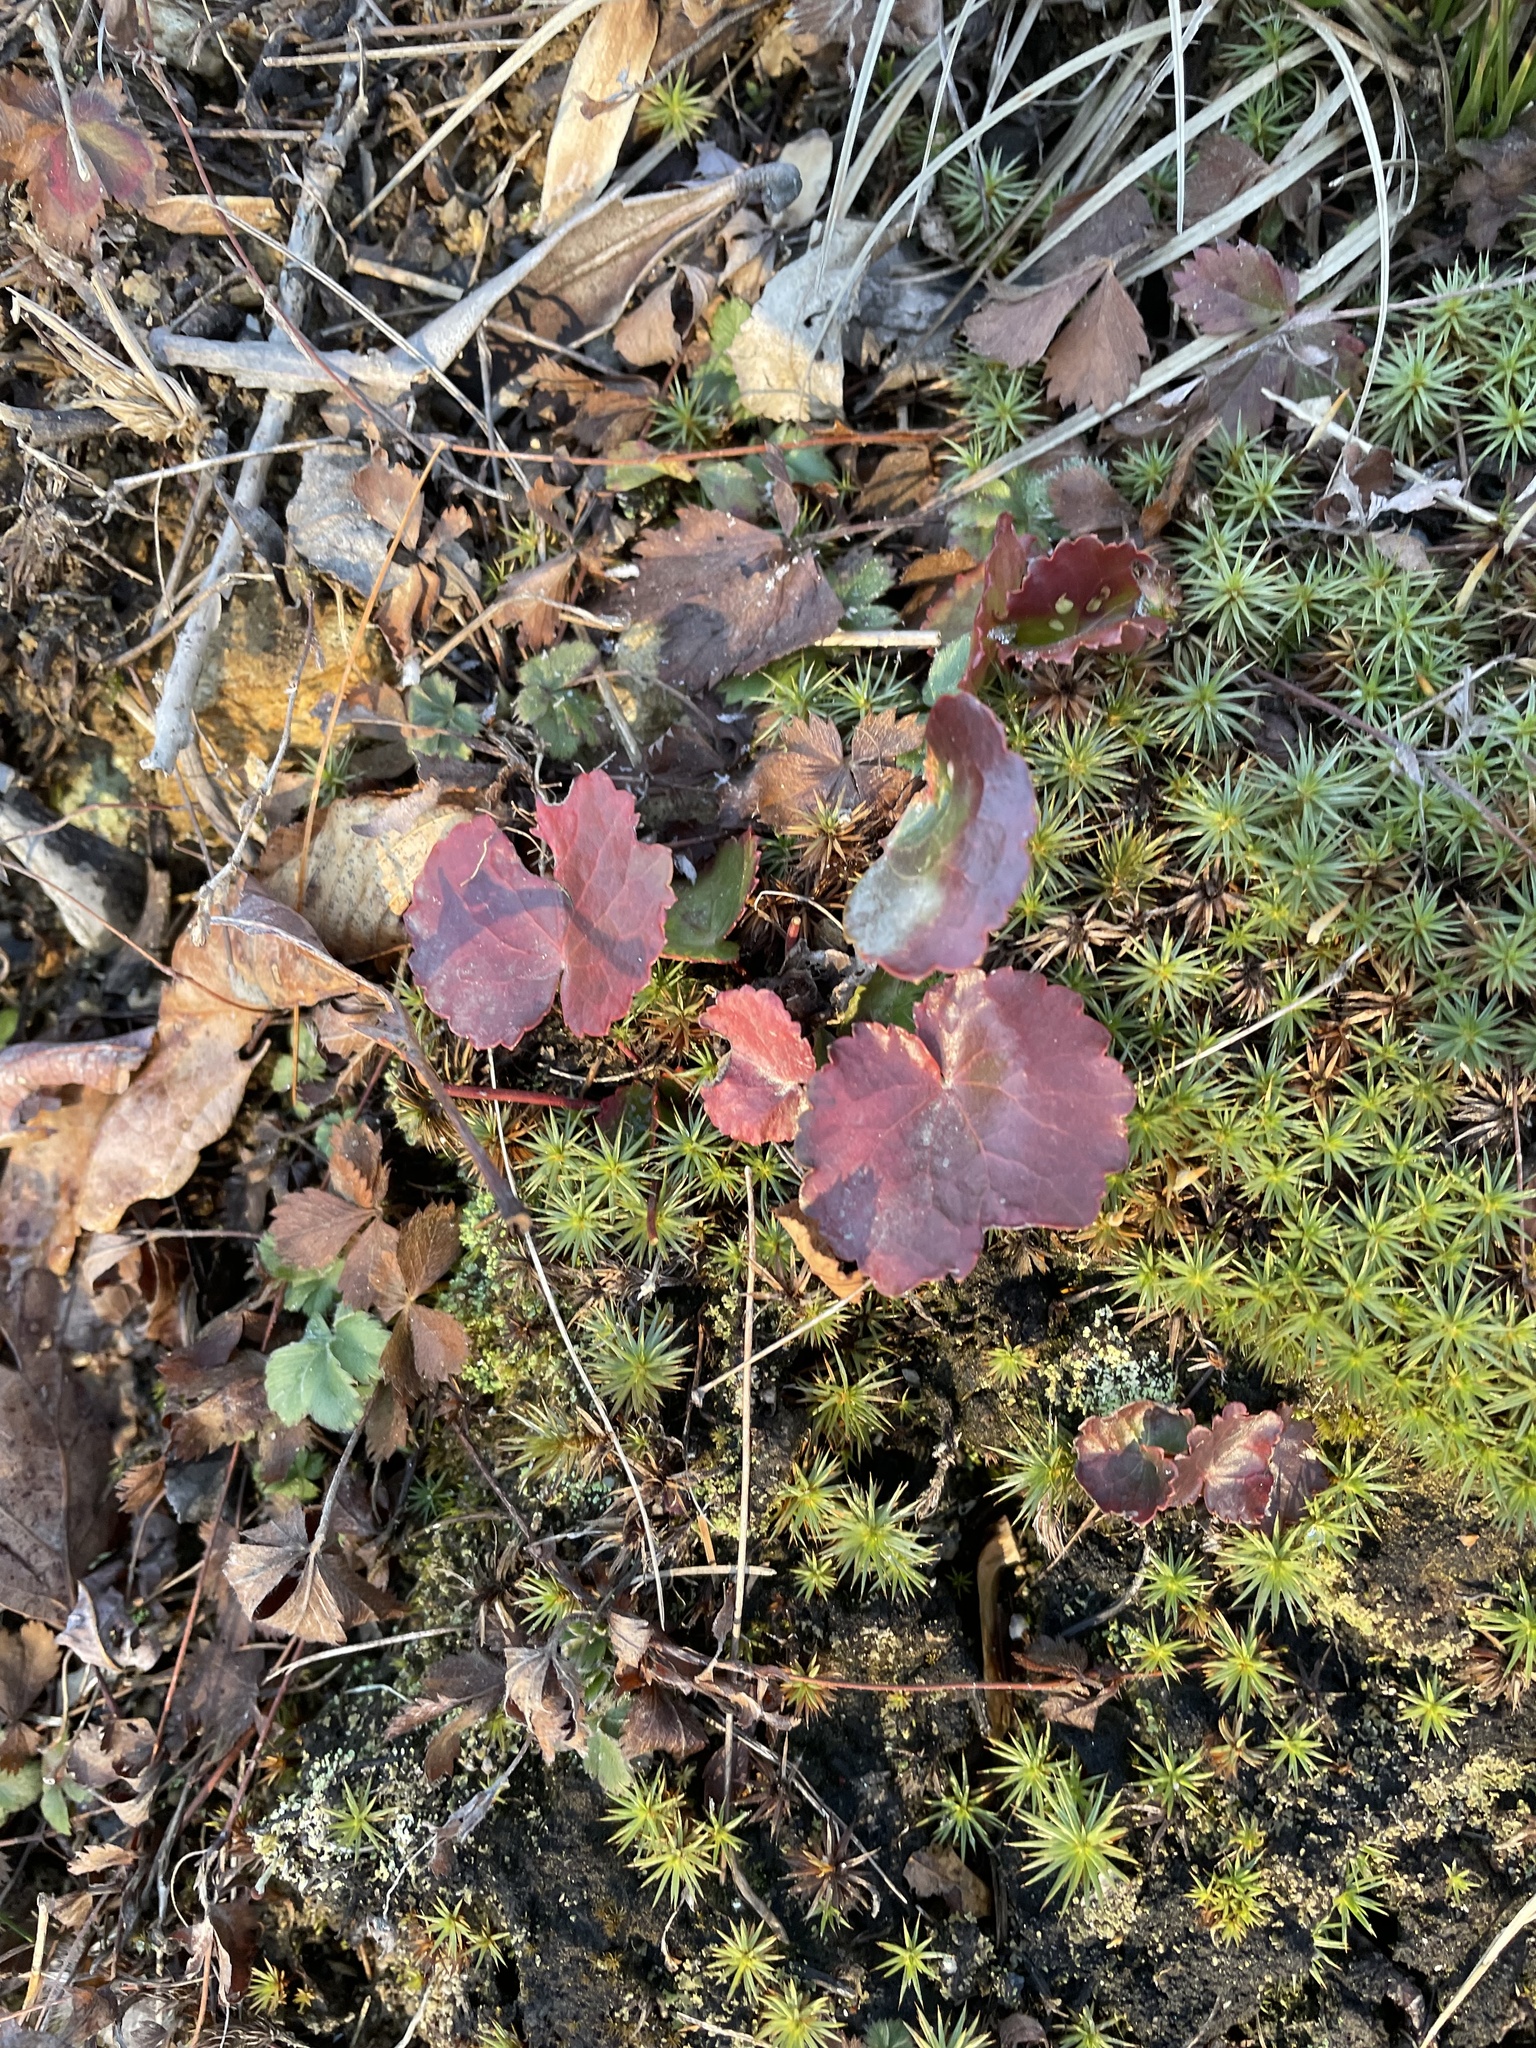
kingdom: Plantae
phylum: Tracheophyta
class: Magnoliopsida
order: Ericales
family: Diapensiaceae
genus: Galax
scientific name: Galax urceolata
